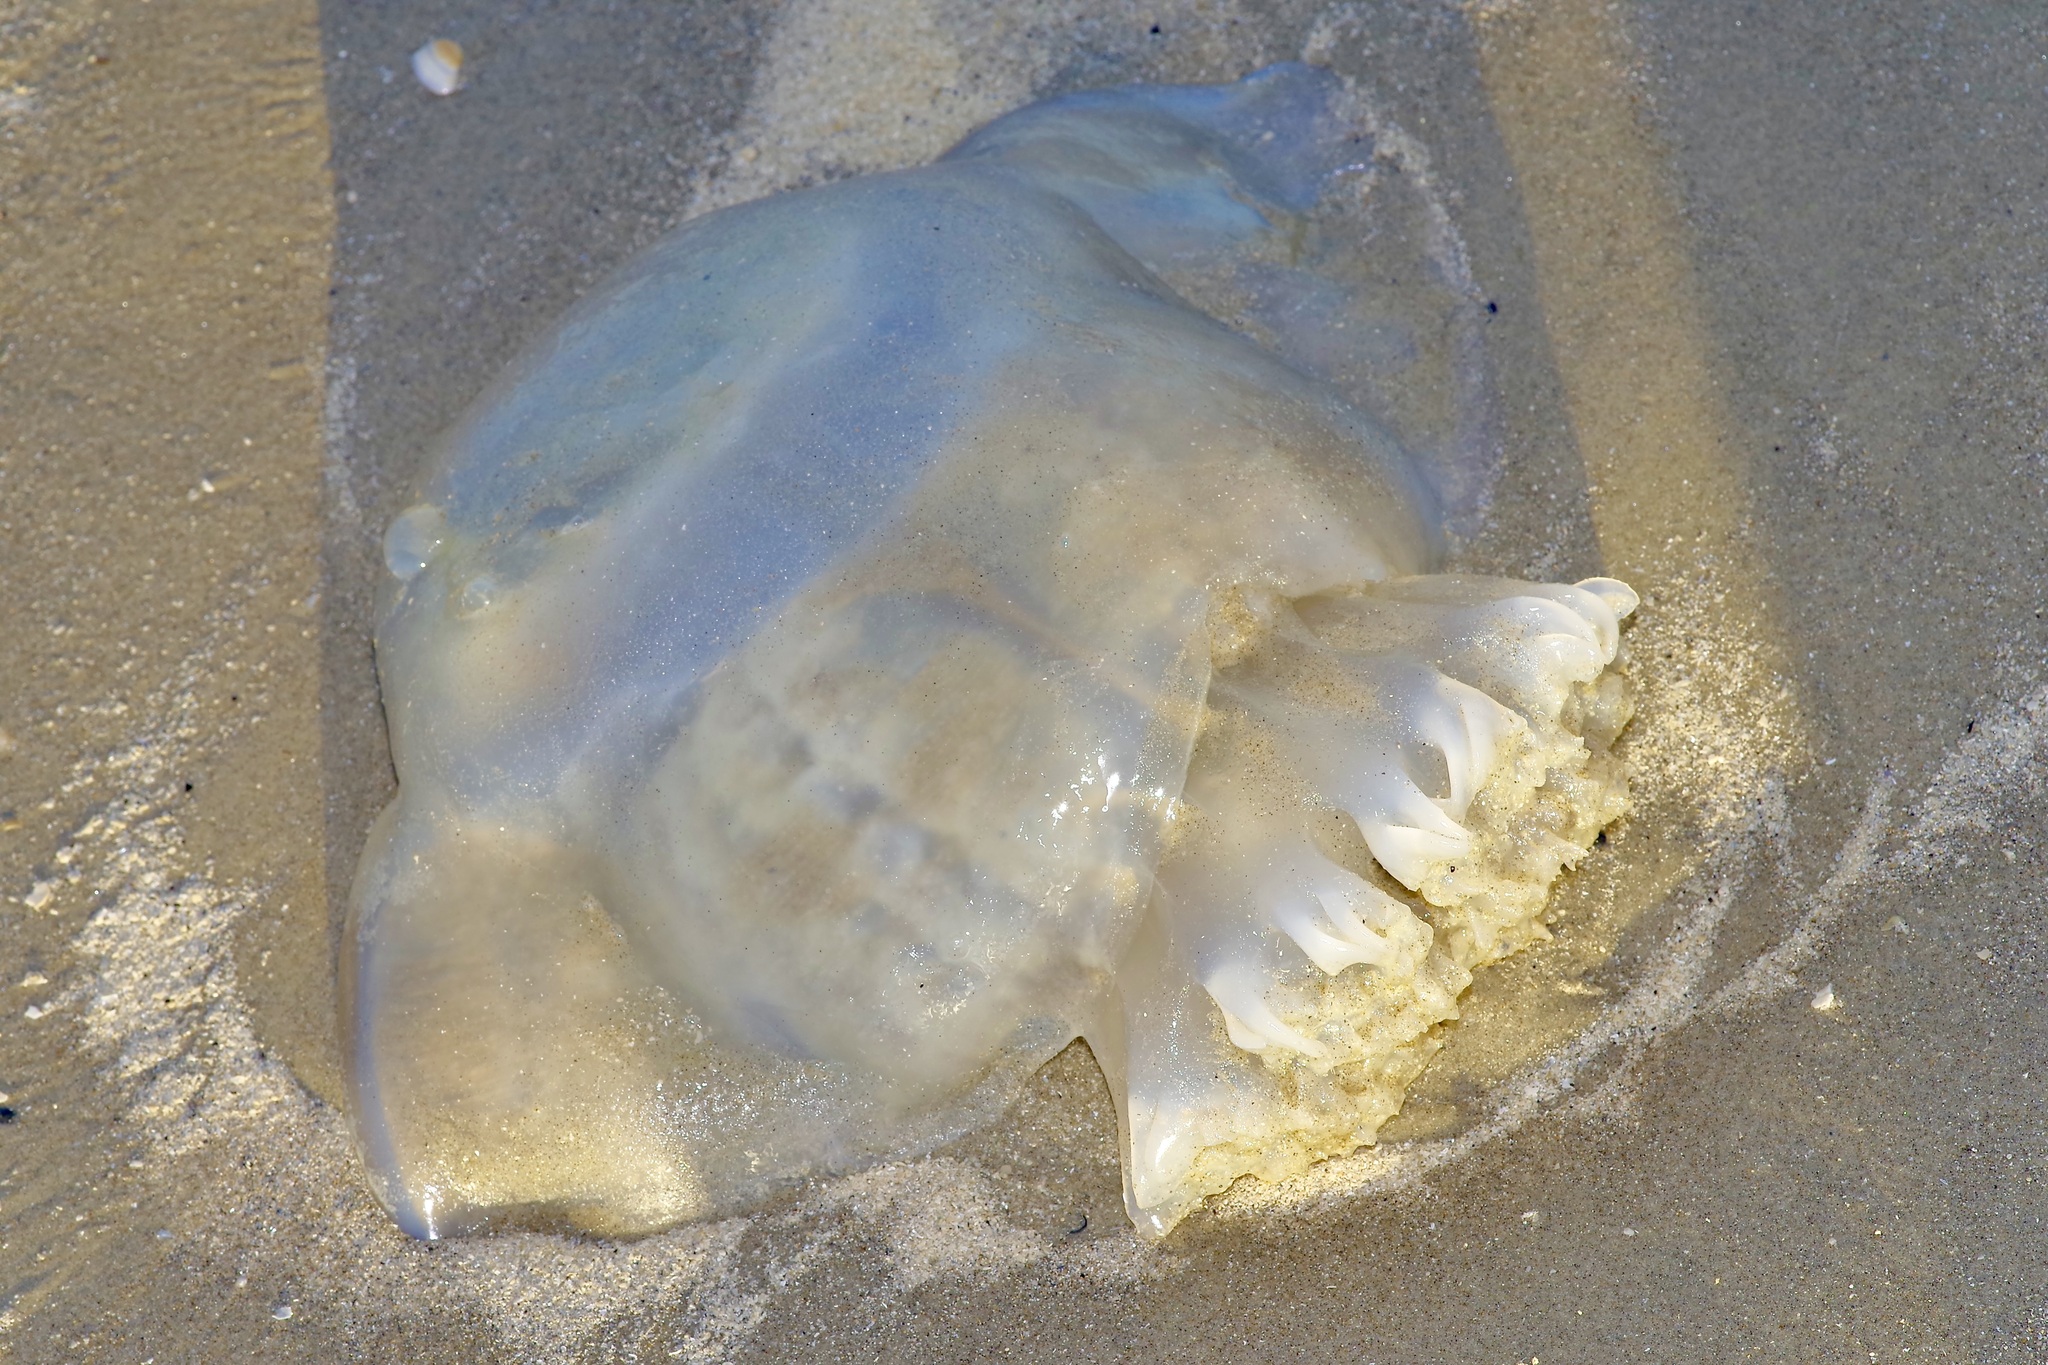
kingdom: Animalia
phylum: Cnidaria
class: Scyphozoa
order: Rhizostomeae
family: Stomolophidae
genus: Stomolophus
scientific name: Stomolophus meleagris
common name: Cabbagehead
